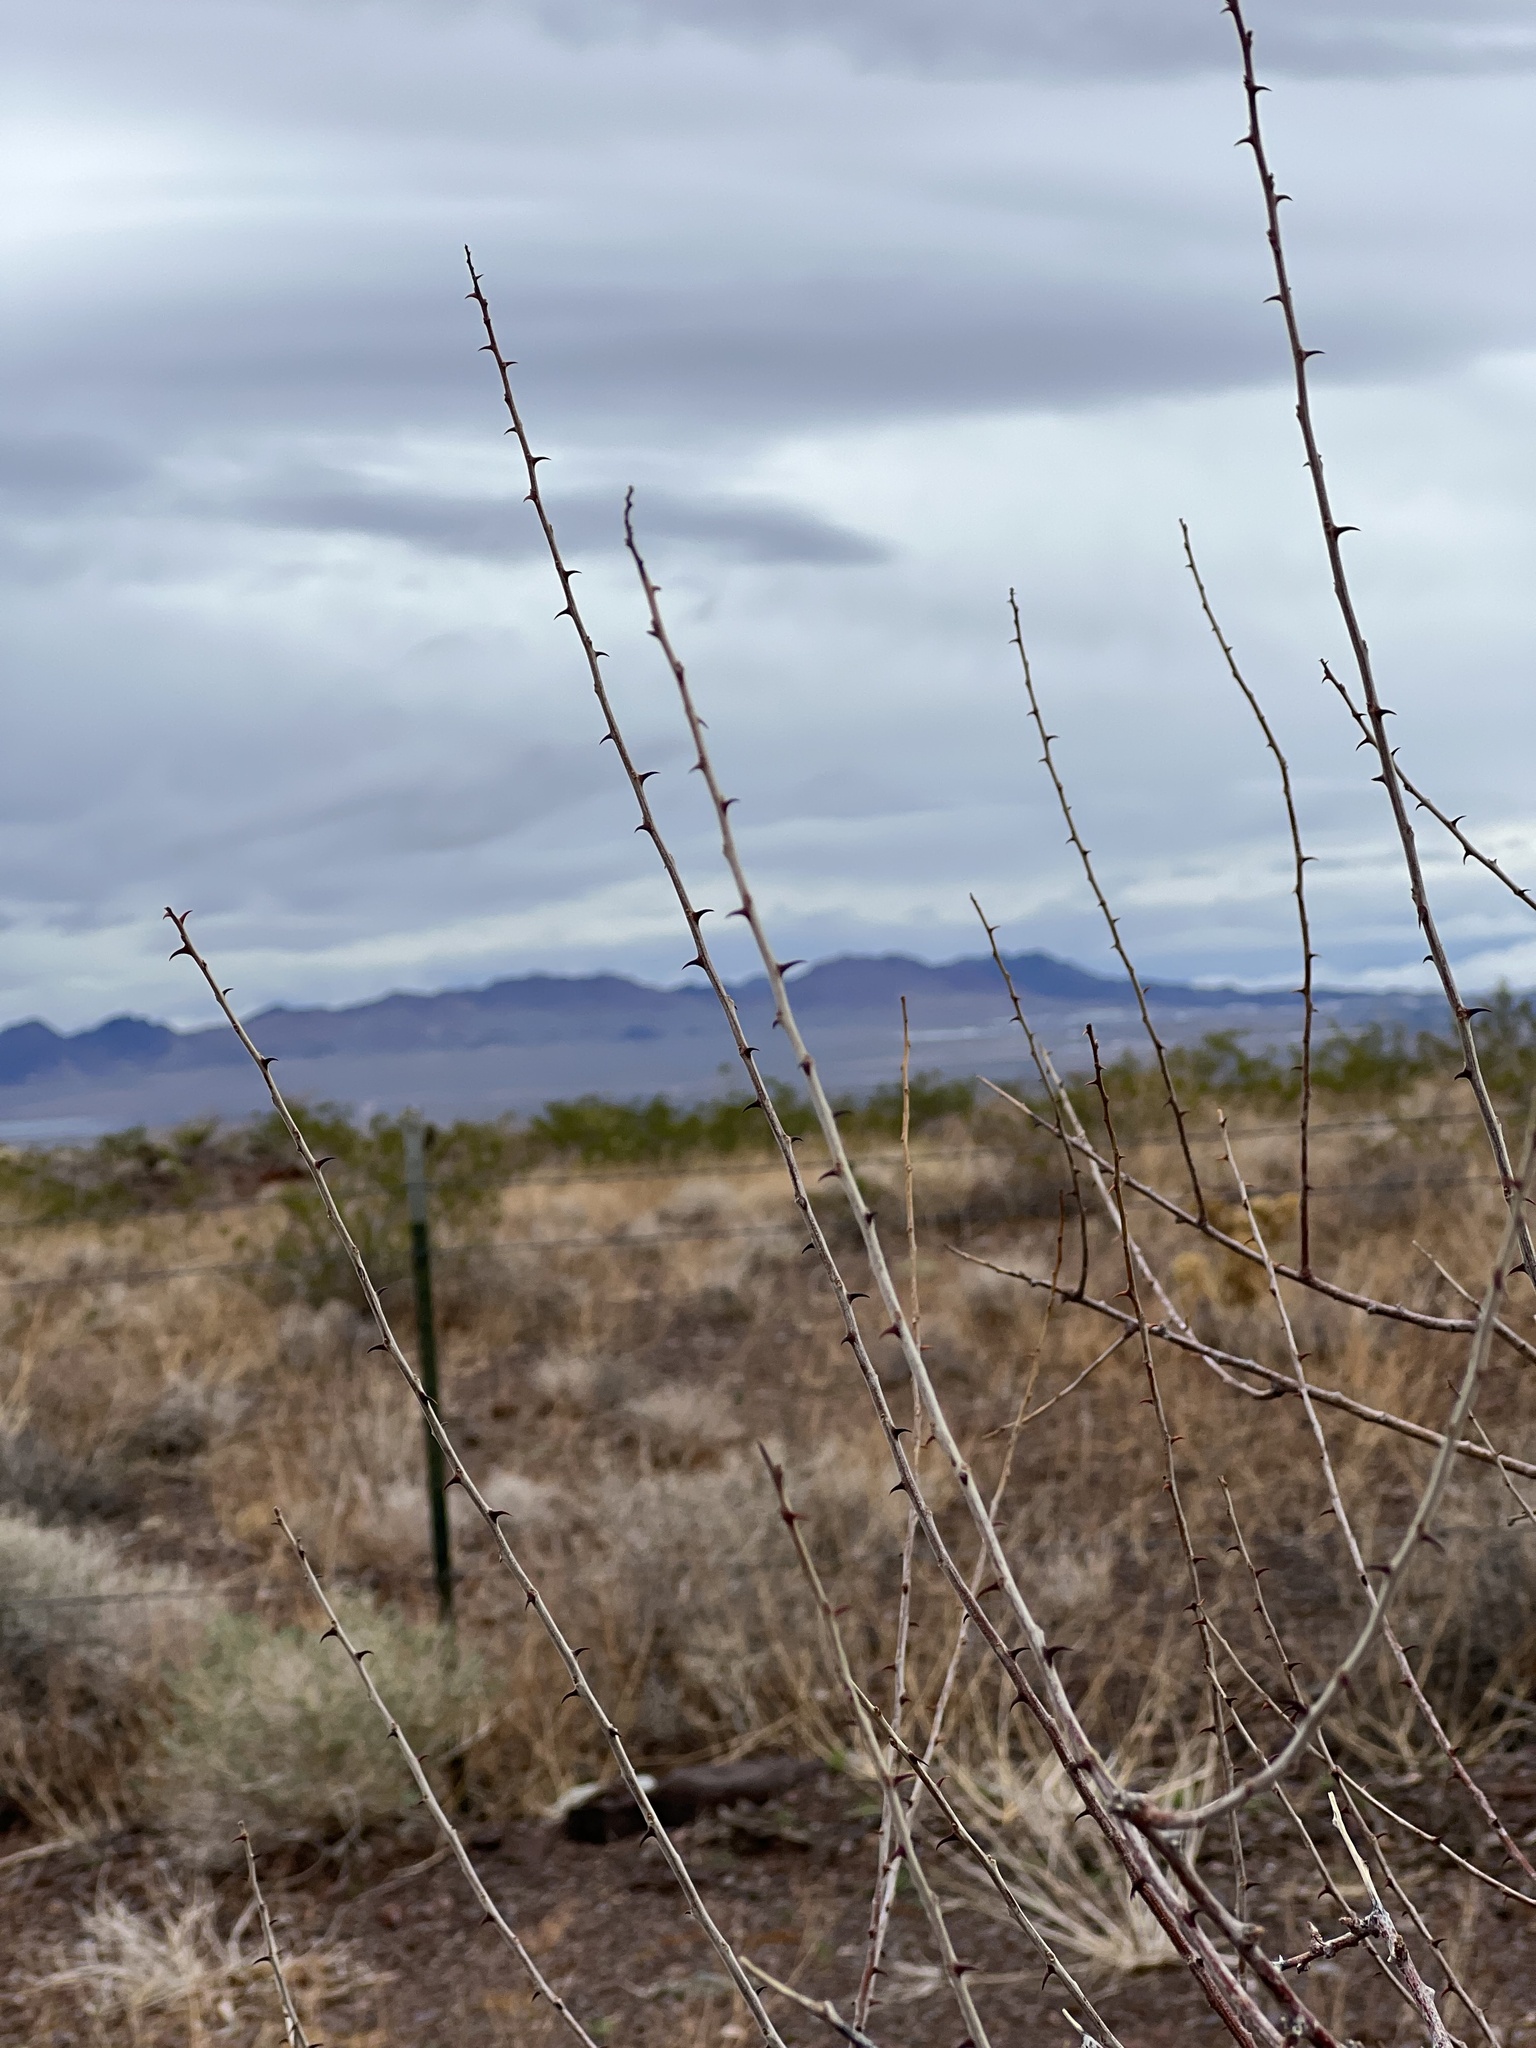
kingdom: Plantae
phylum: Tracheophyta
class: Magnoliopsida
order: Fabales
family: Fabaceae
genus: Senegalia
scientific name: Senegalia greggii
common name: Texas-mimosa
